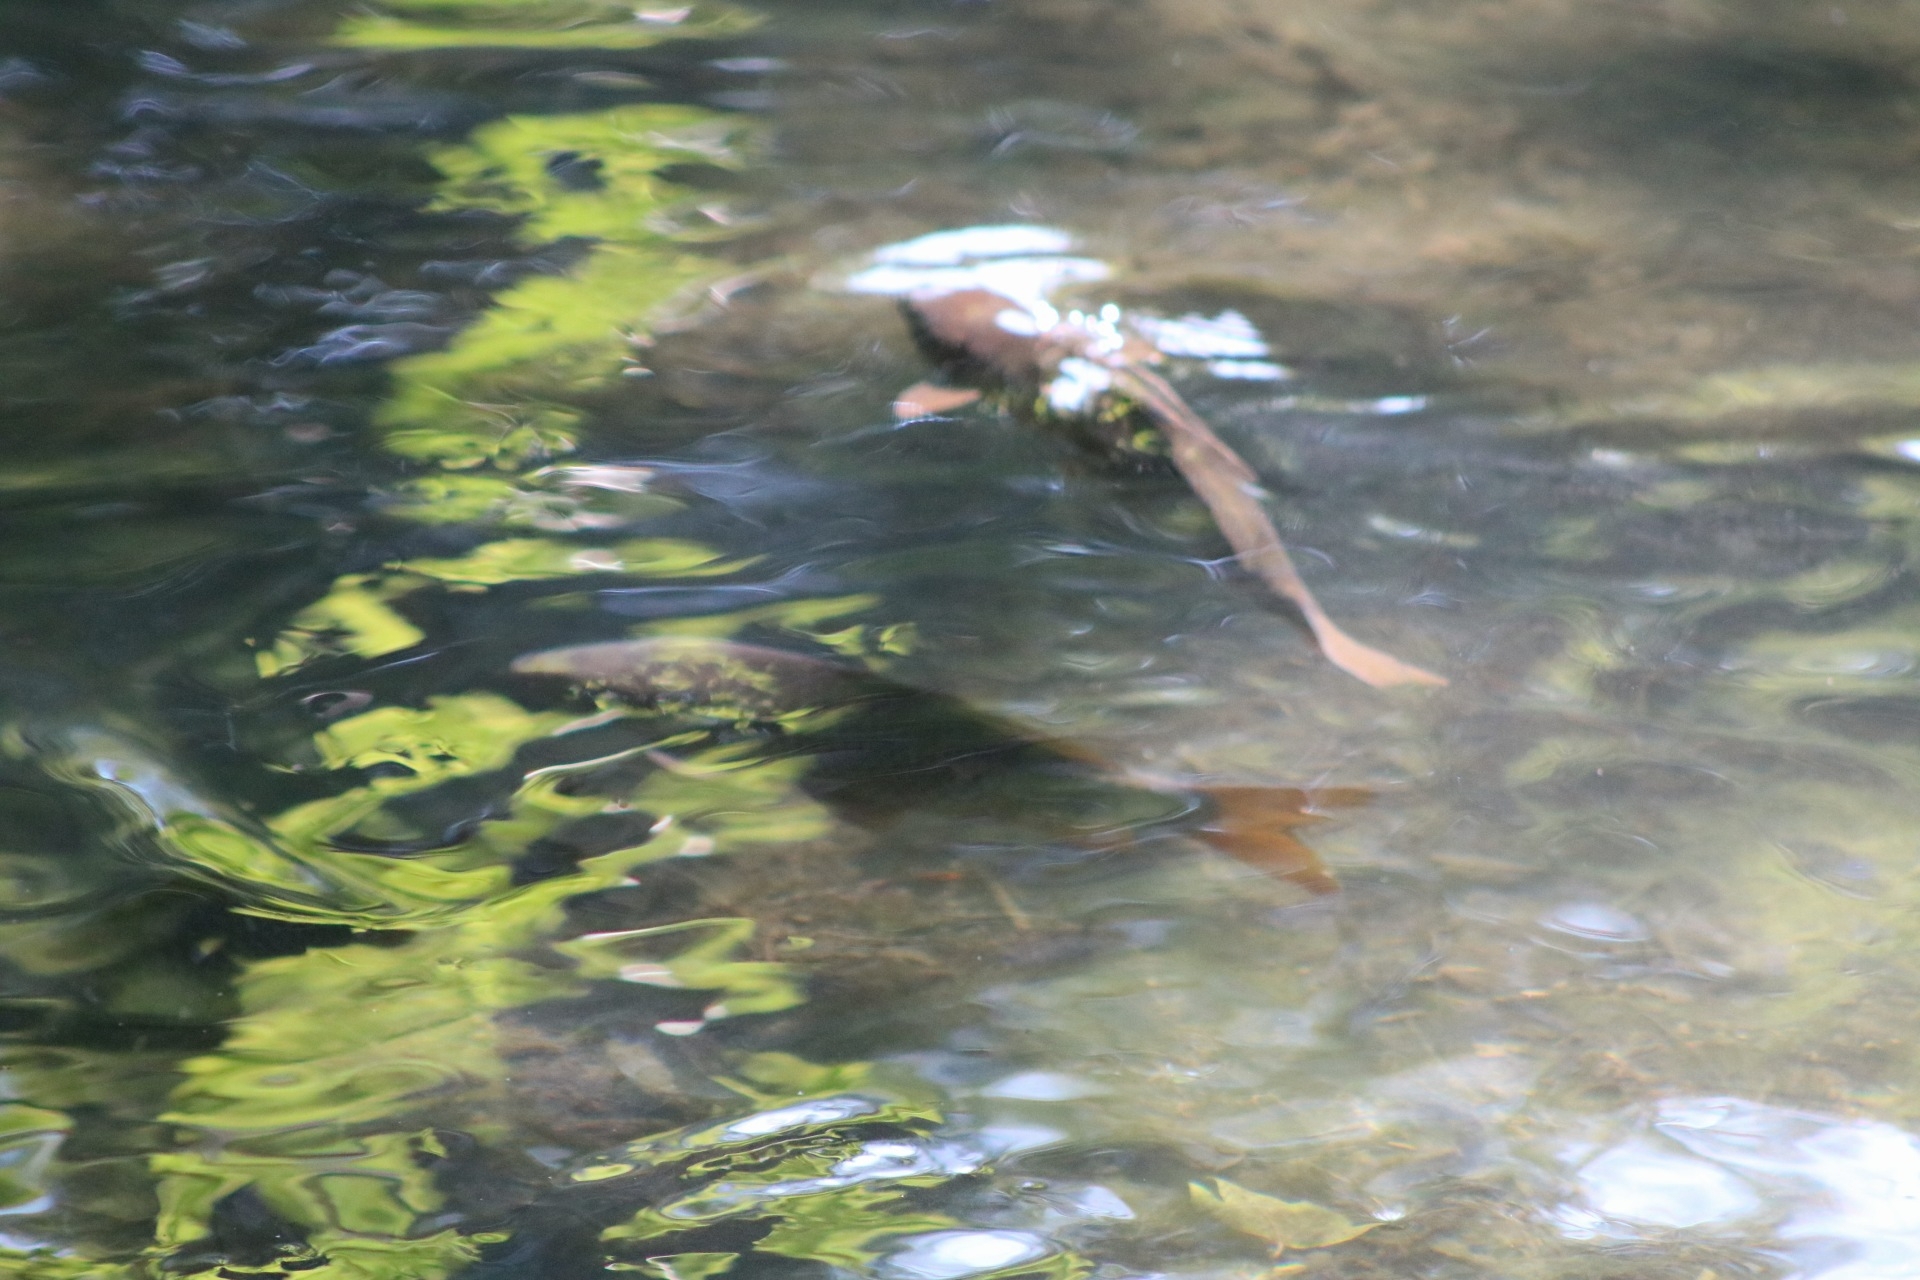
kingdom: Animalia
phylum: Chordata
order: Cypriniformes
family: Cyprinidae
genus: Cyprinus
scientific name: Cyprinus carpio
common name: Common carp
